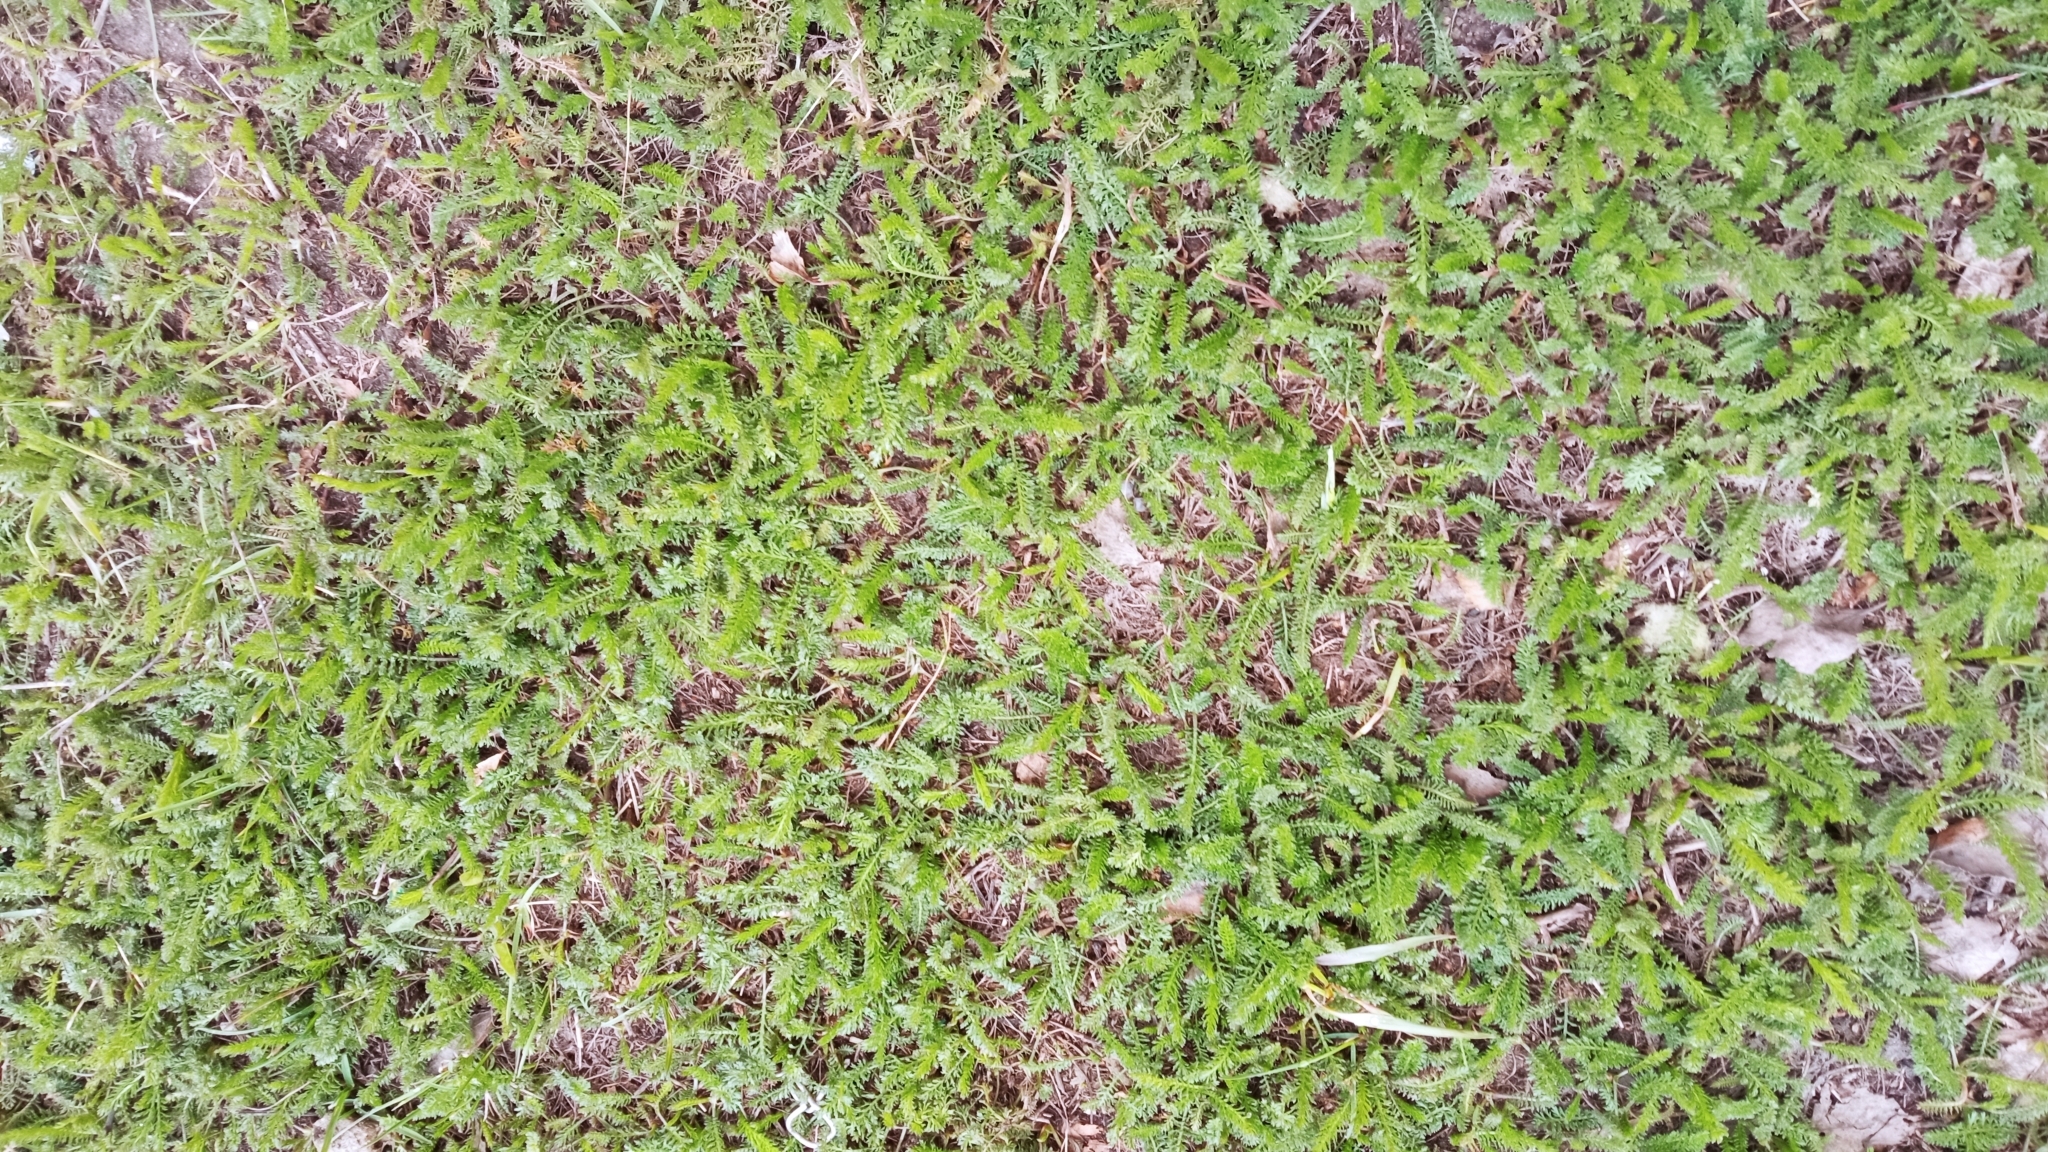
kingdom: Plantae
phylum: Tracheophyta
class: Magnoliopsida
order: Asterales
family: Asteraceae
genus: Achillea
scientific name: Achillea millefolium
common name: Yarrow
